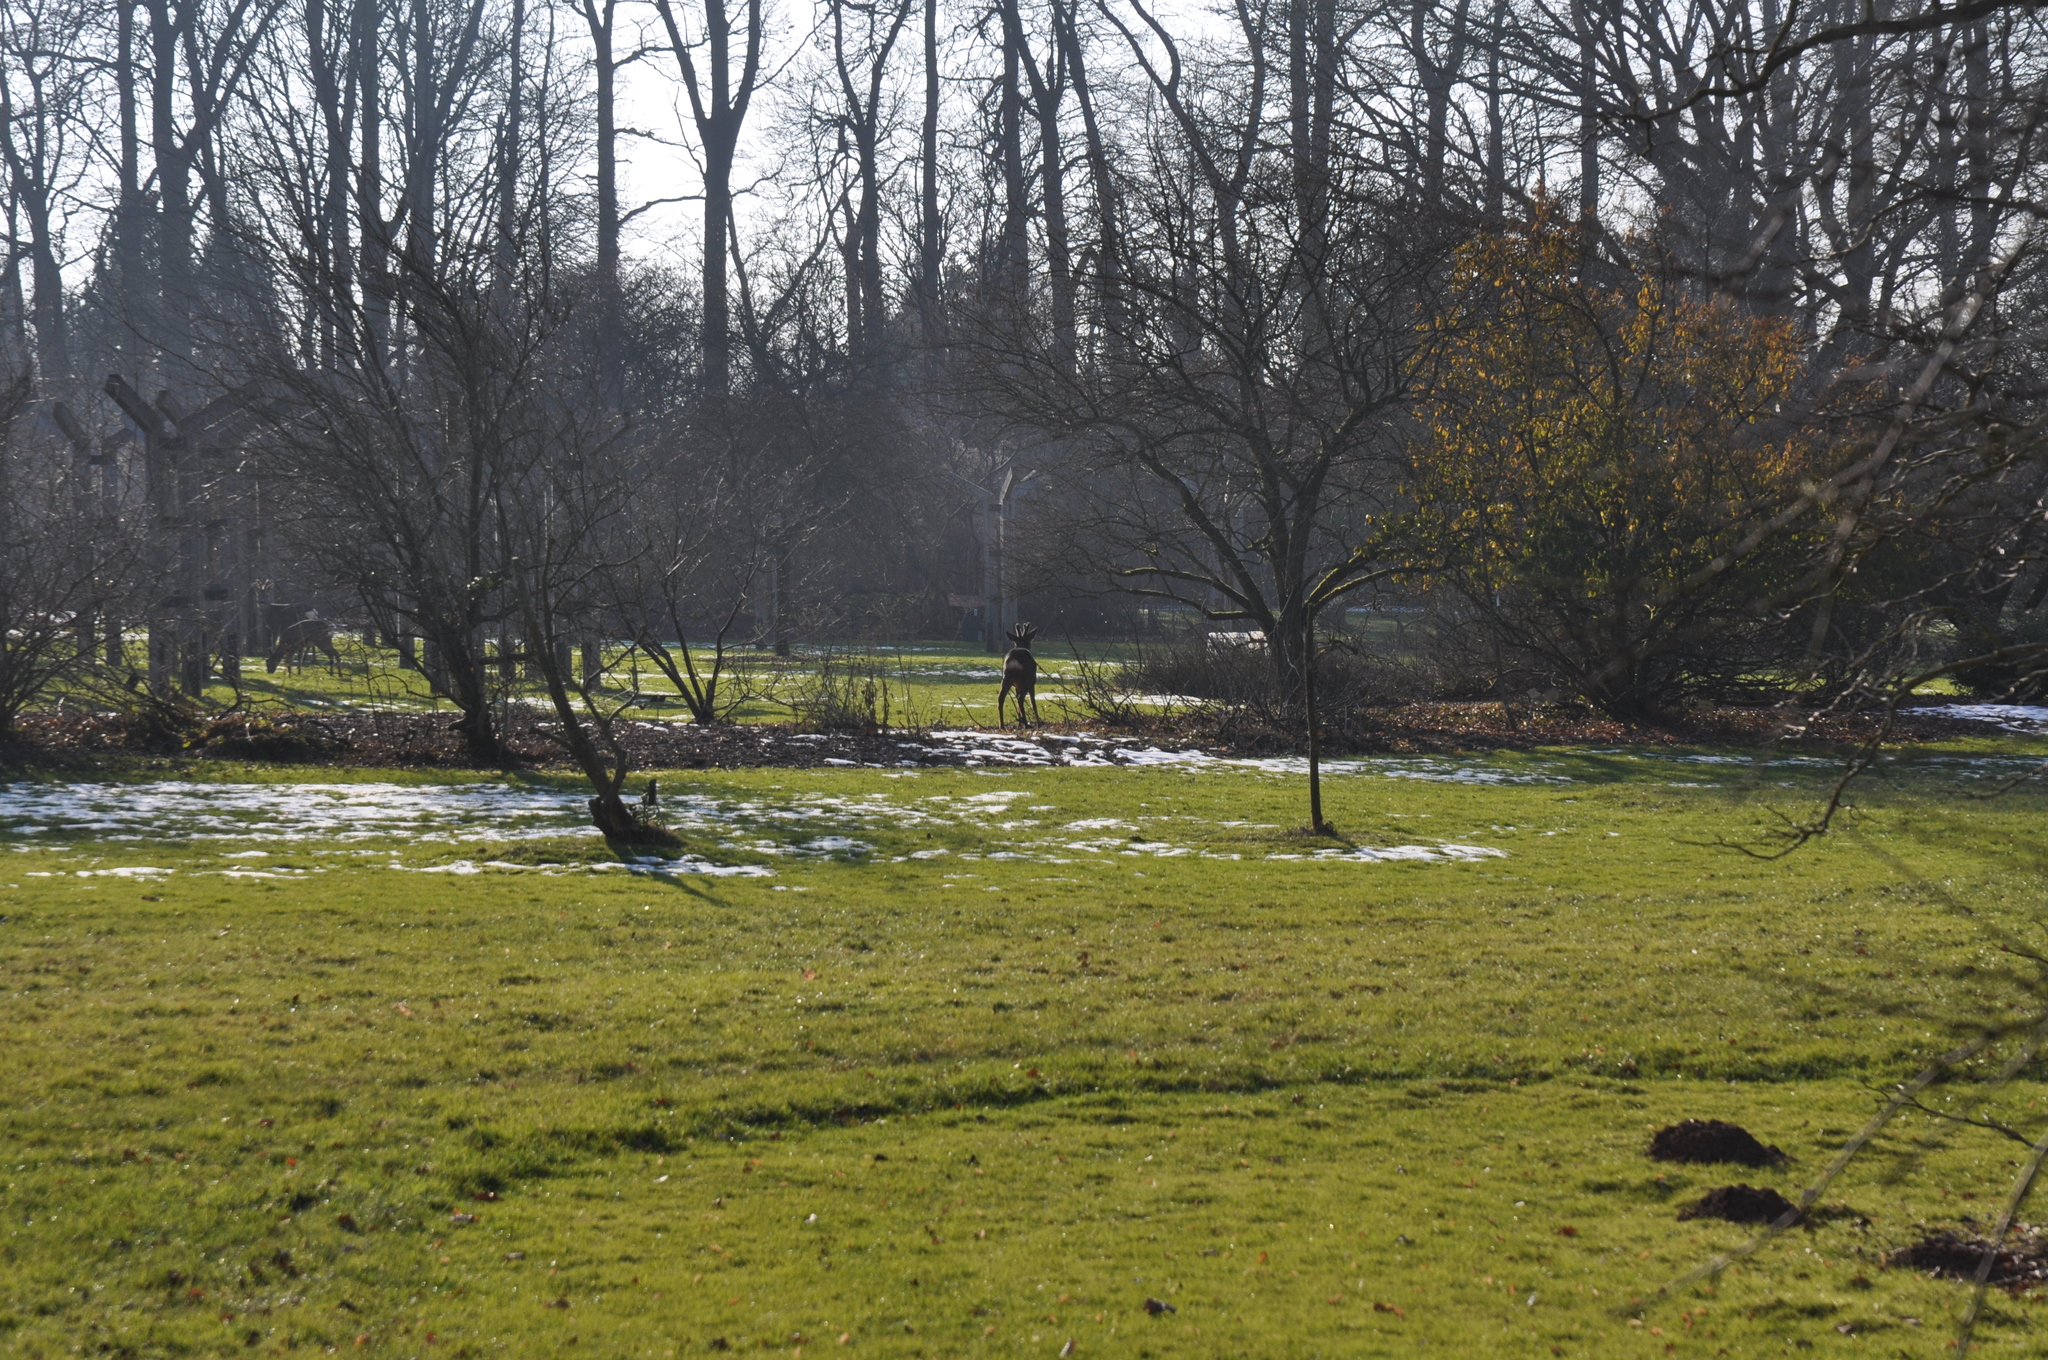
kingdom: Animalia
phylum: Chordata
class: Mammalia
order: Artiodactyla
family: Cervidae
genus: Capreolus
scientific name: Capreolus capreolus
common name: Western roe deer
